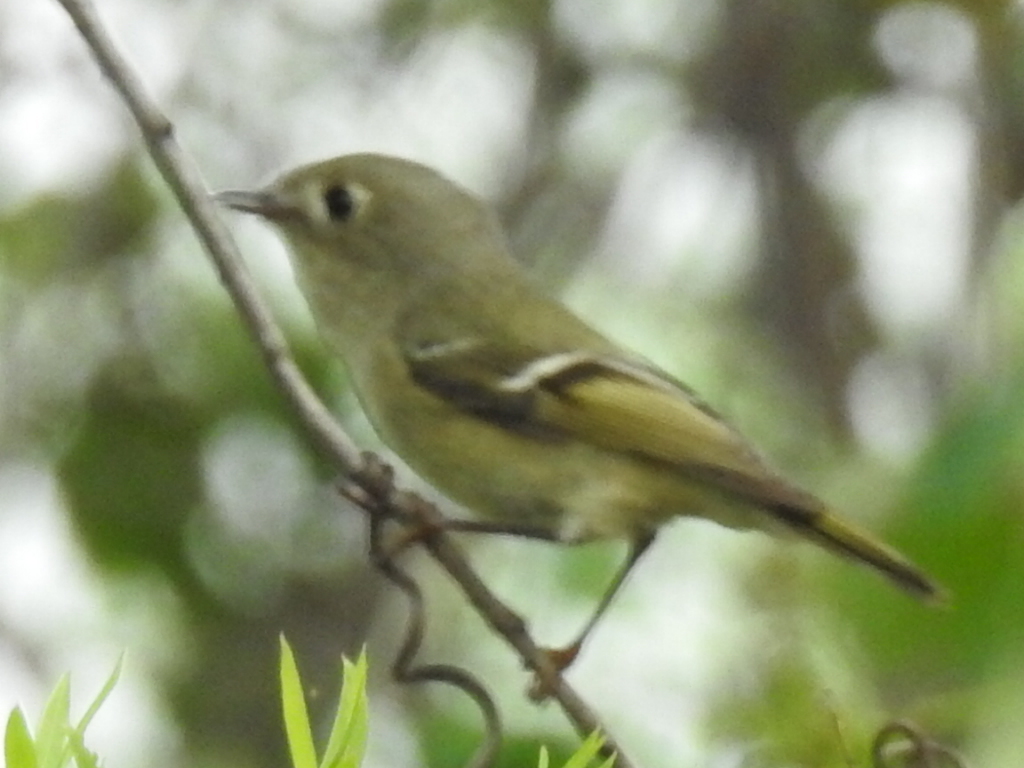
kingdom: Animalia
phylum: Chordata
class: Aves
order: Passeriformes
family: Regulidae
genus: Regulus
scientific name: Regulus calendula
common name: Ruby-crowned kinglet
